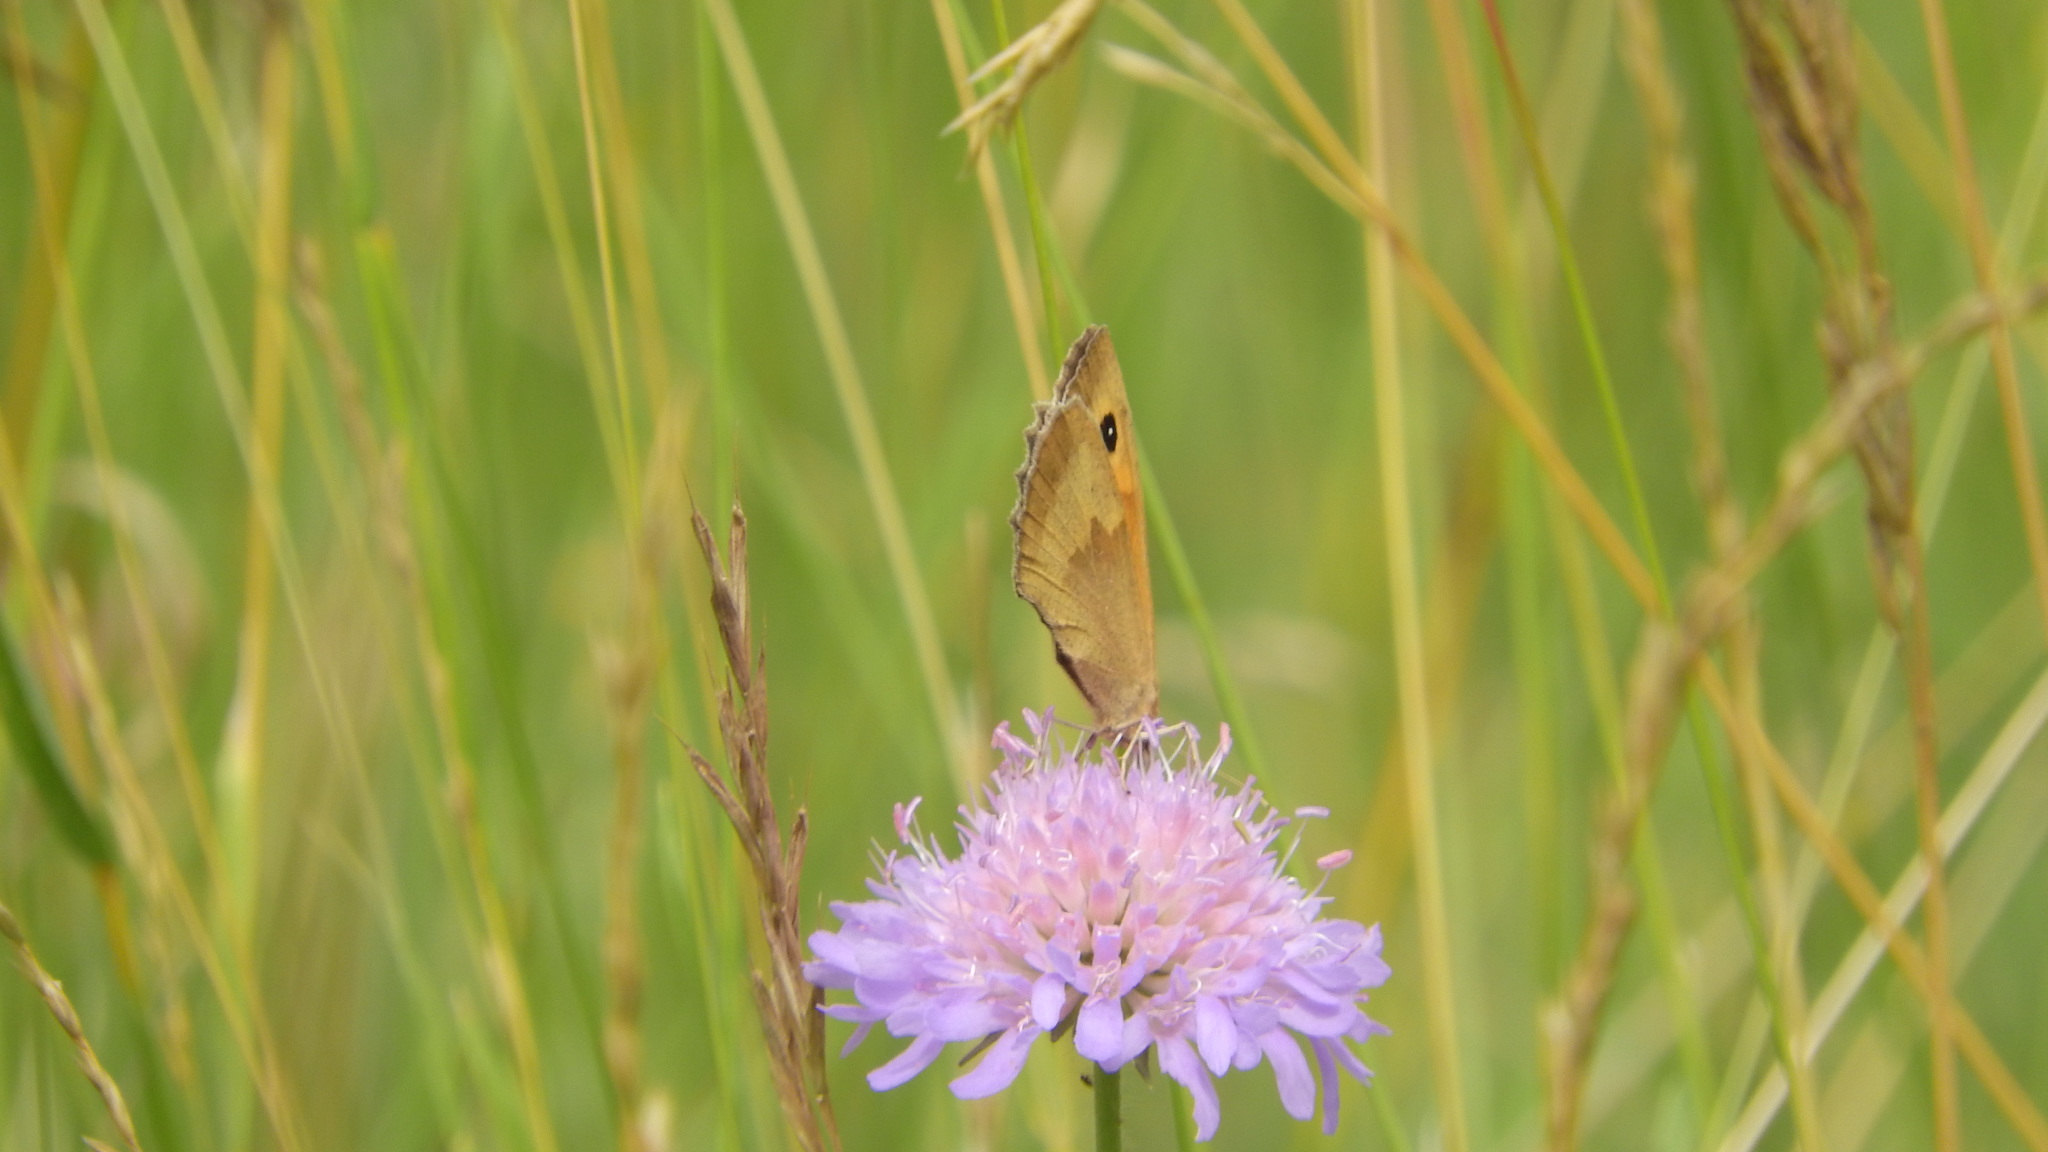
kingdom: Animalia
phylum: Arthropoda
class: Insecta
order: Lepidoptera
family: Nymphalidae
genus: Maniola
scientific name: Maniola jurtina
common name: Meadow brown
